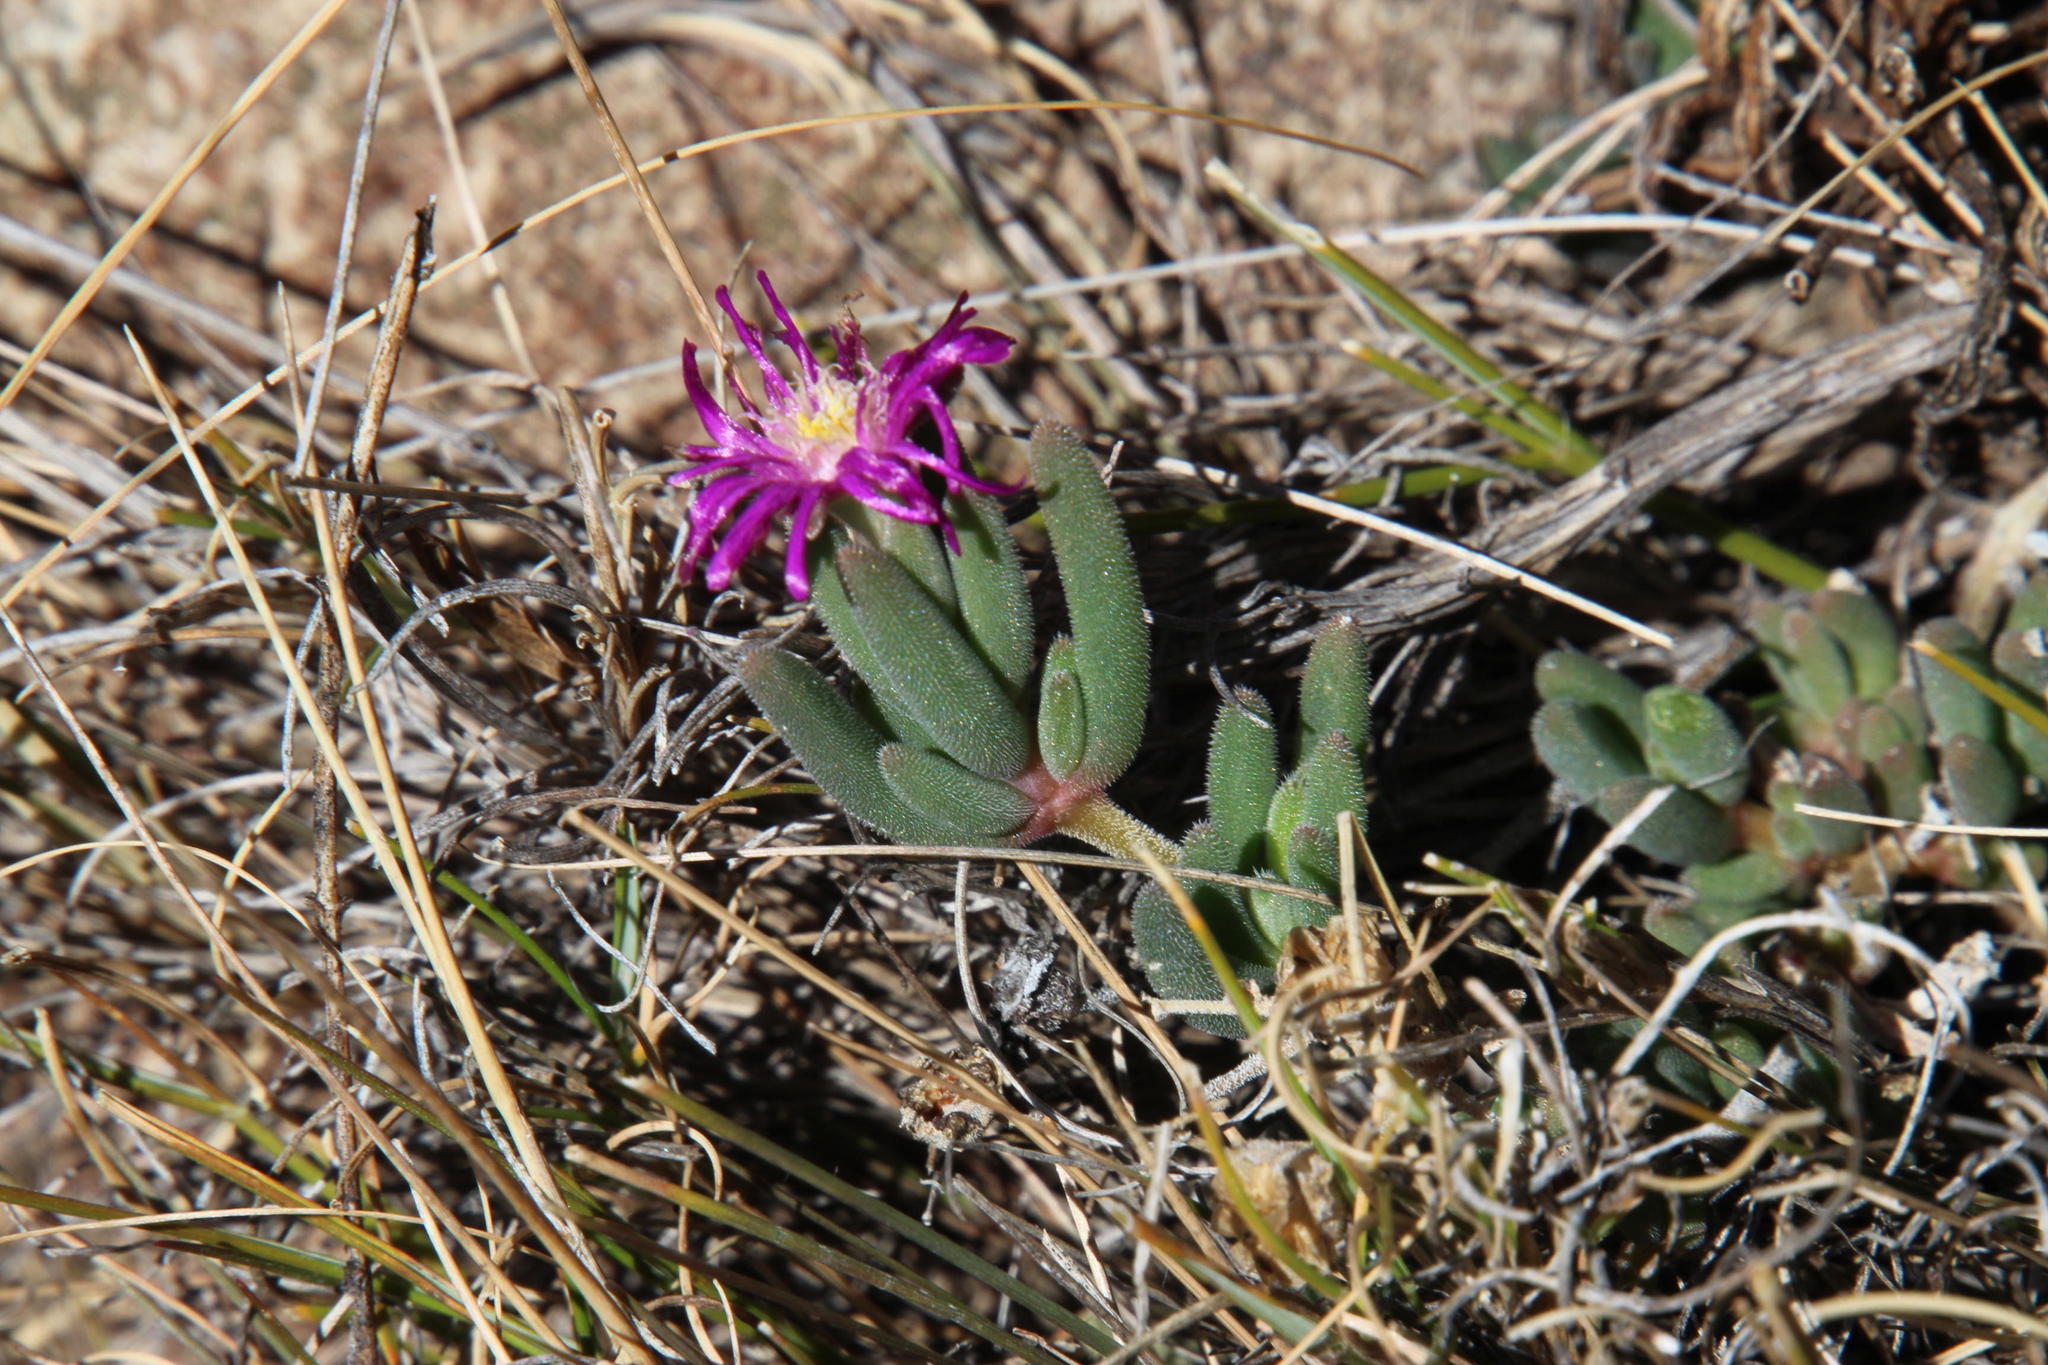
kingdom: Plantae
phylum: Tracheophyta
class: Magnoliopsida
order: Caryophyllales
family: Aizoaceae
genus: Delosperma
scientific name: Delosperma lootsbergense
